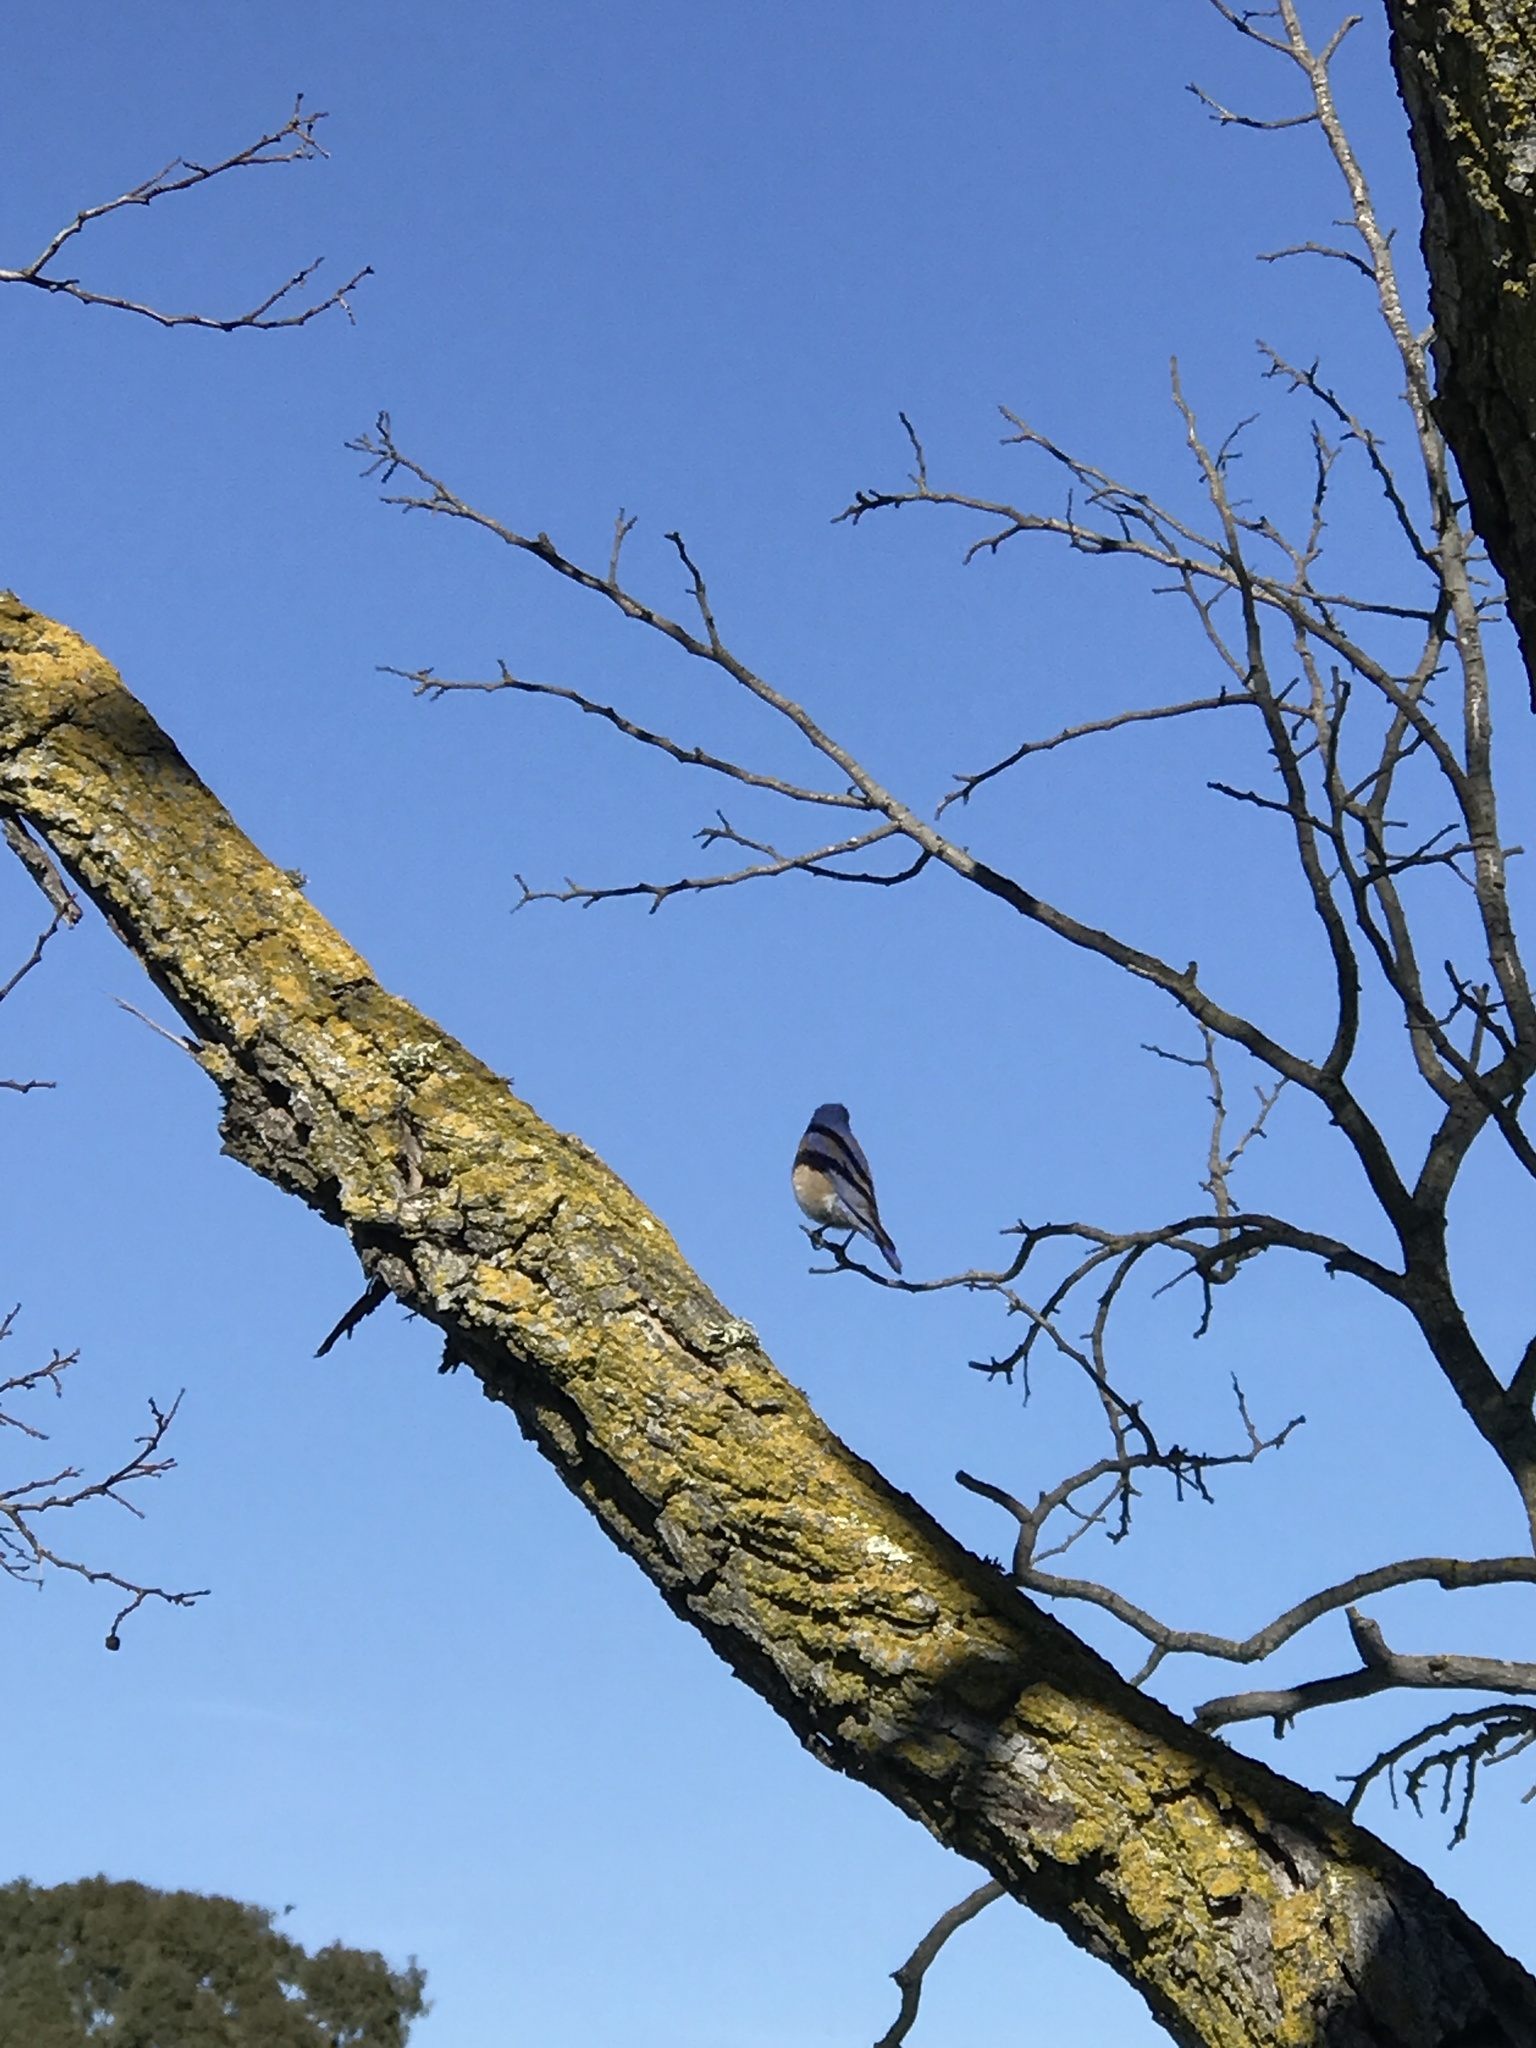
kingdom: Animalia
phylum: Chordata
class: Aves
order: Passeriformes
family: Turdidae
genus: Sialia
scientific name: Sialia mexicana
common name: Western bluebird
